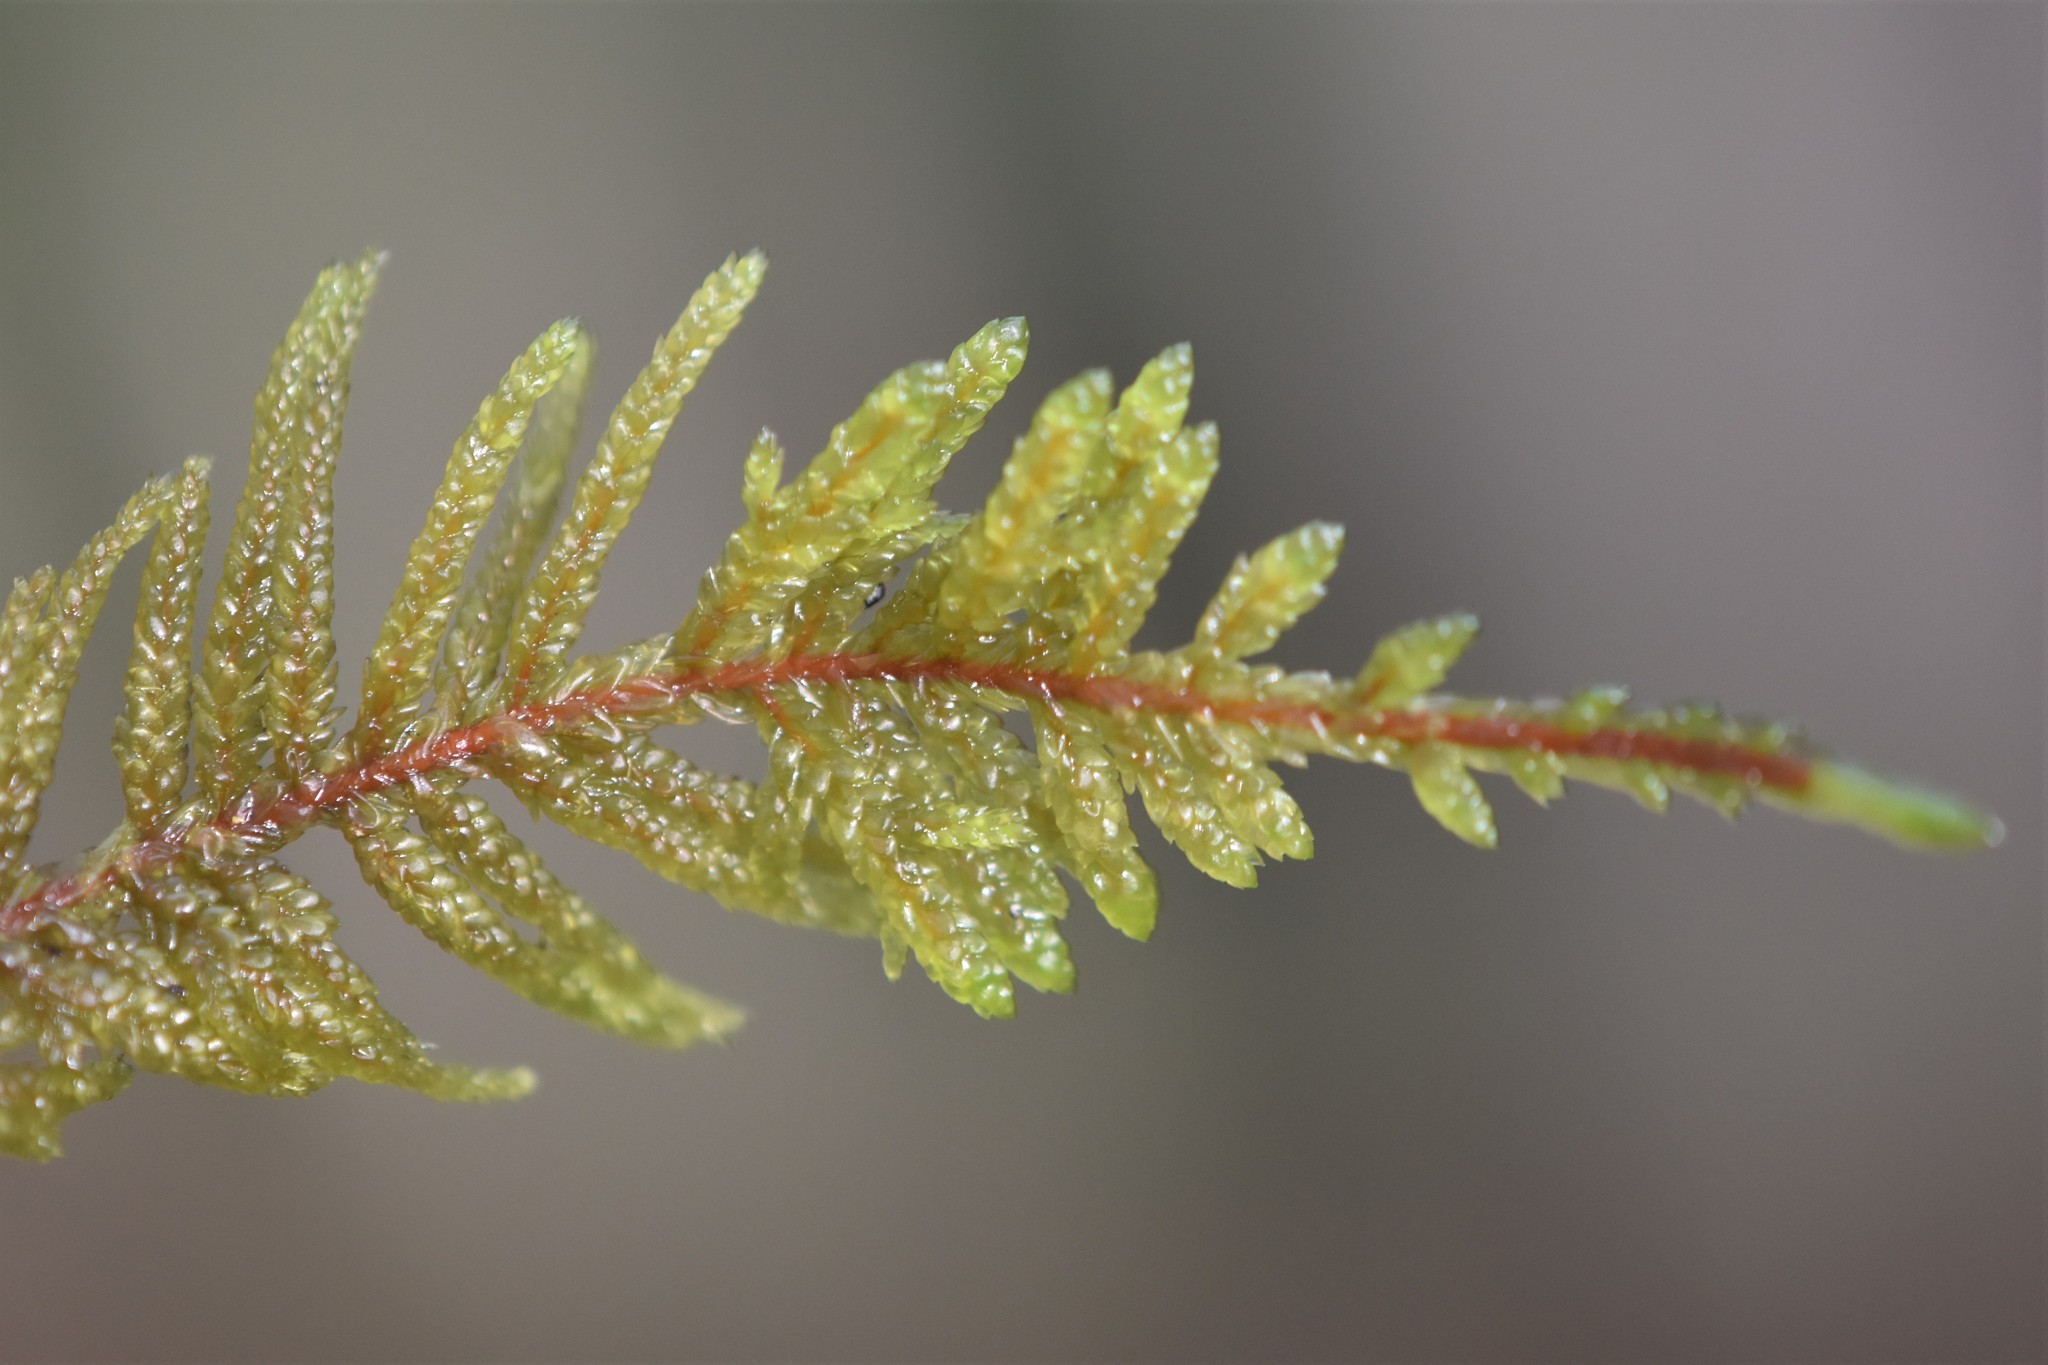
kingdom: Plantae
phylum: Bryophyta
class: Bryopsida
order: Hypnales
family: Hylocomiaceae
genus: Pleurozium
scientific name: Pleurozium schreberi
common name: Red-stemmed feather moss
